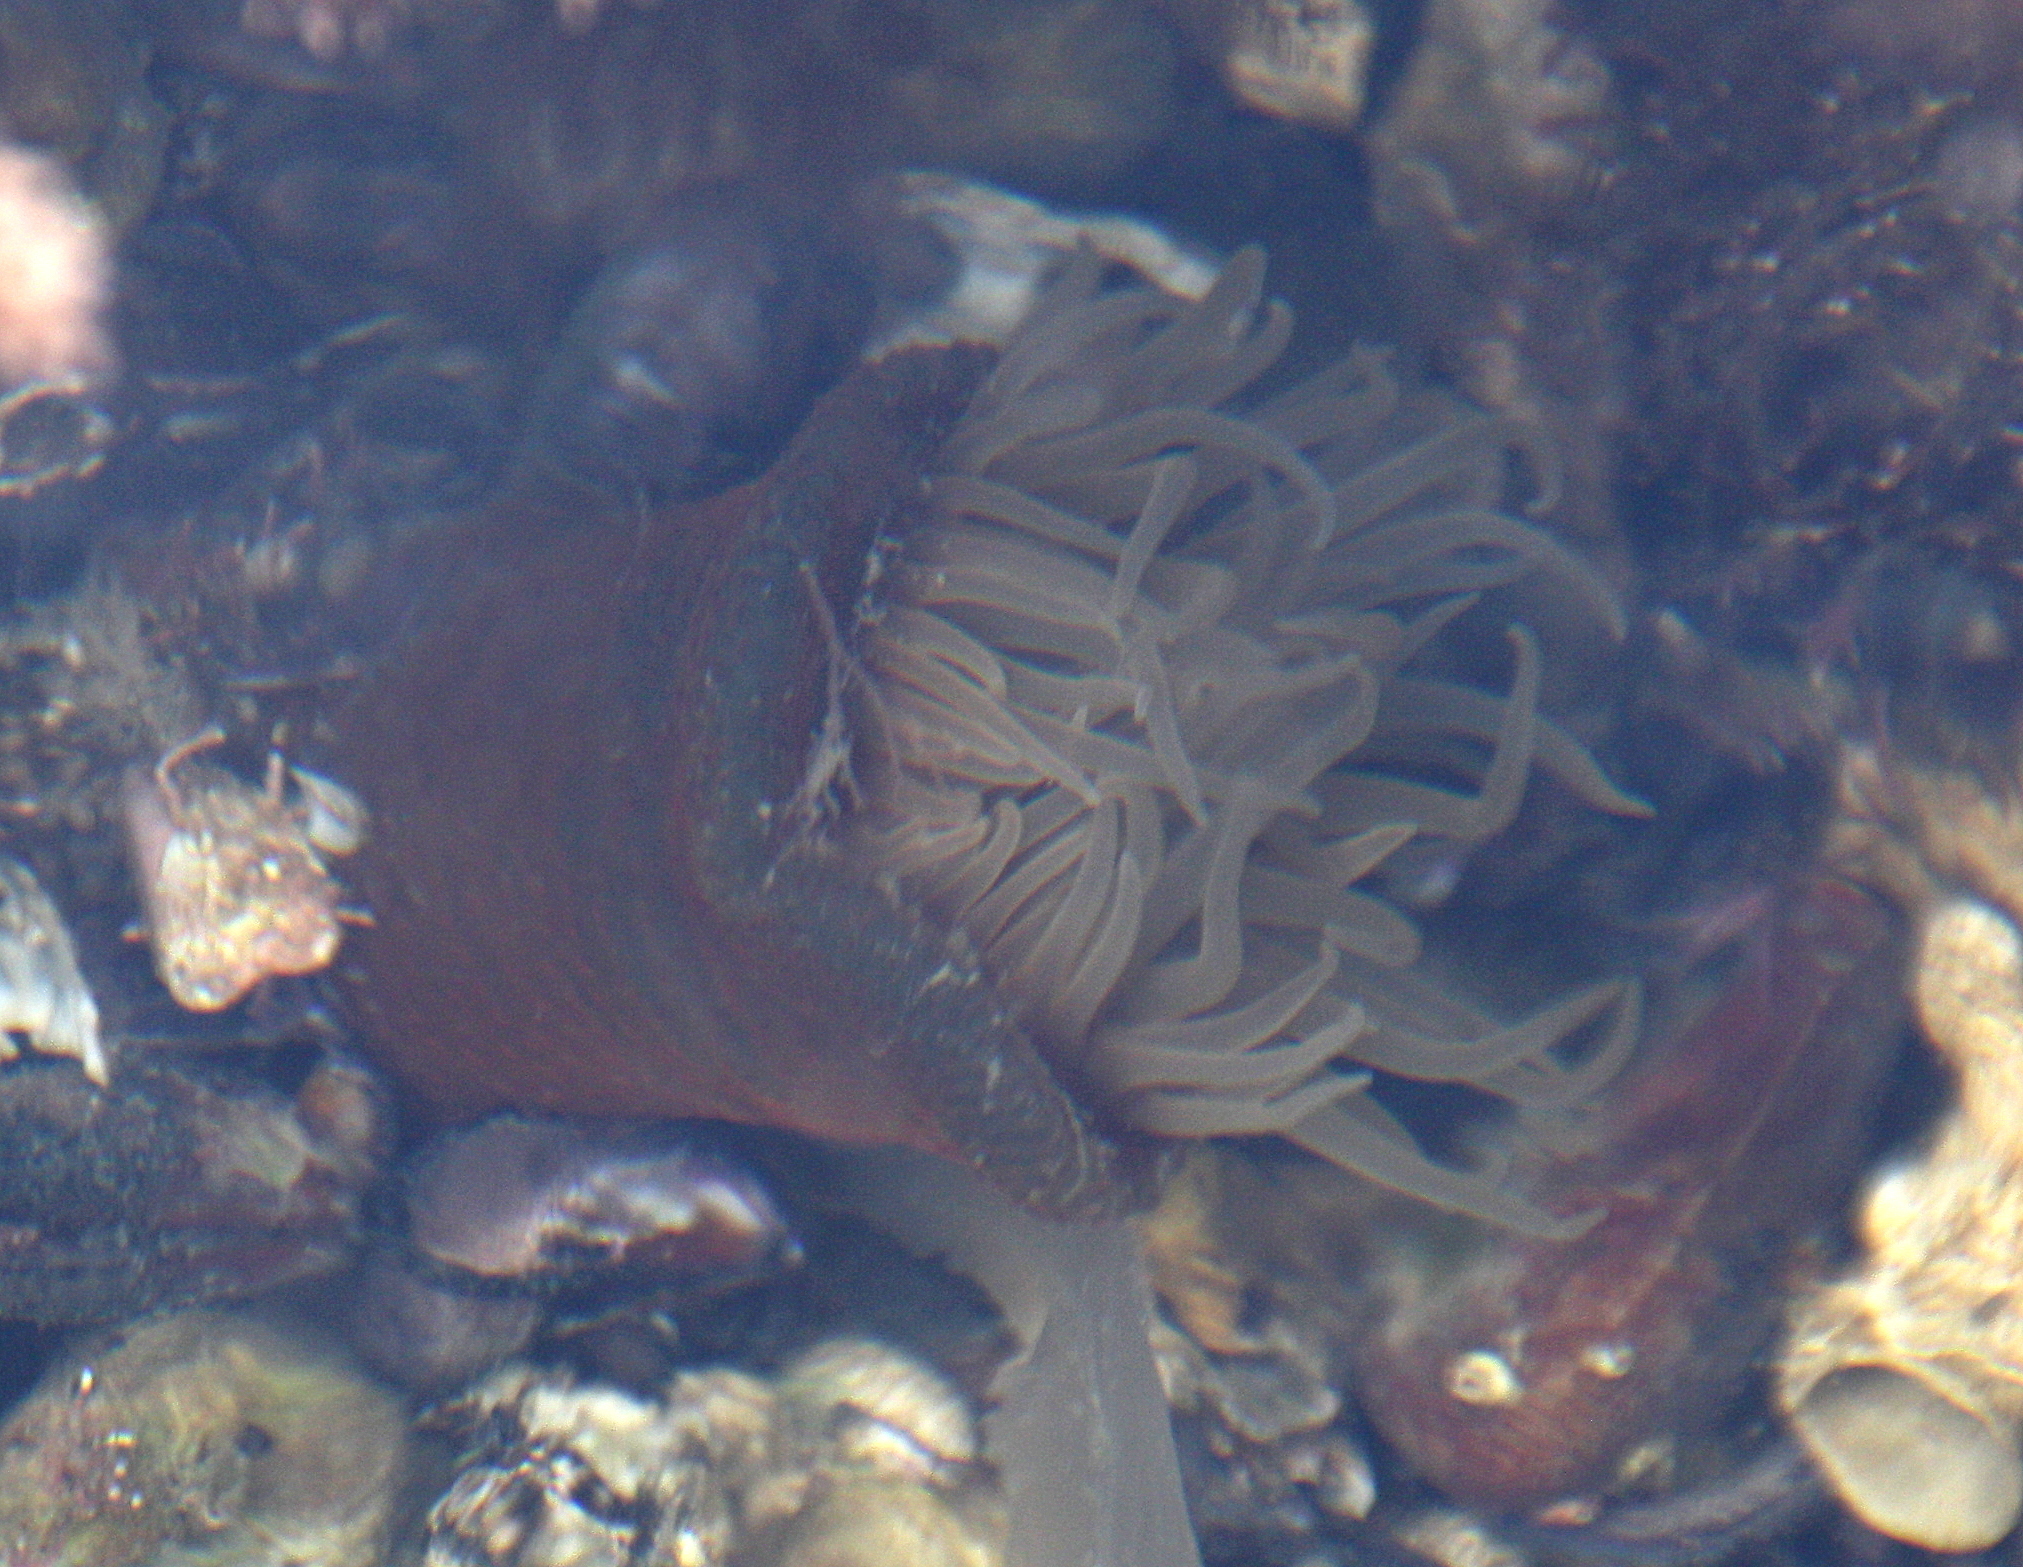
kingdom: Animalia
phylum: Cnidaria
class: Anthozoa
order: Actiniaria
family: Actiniidae
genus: Parabunodactis
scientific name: Parabunodactis imperfecta
